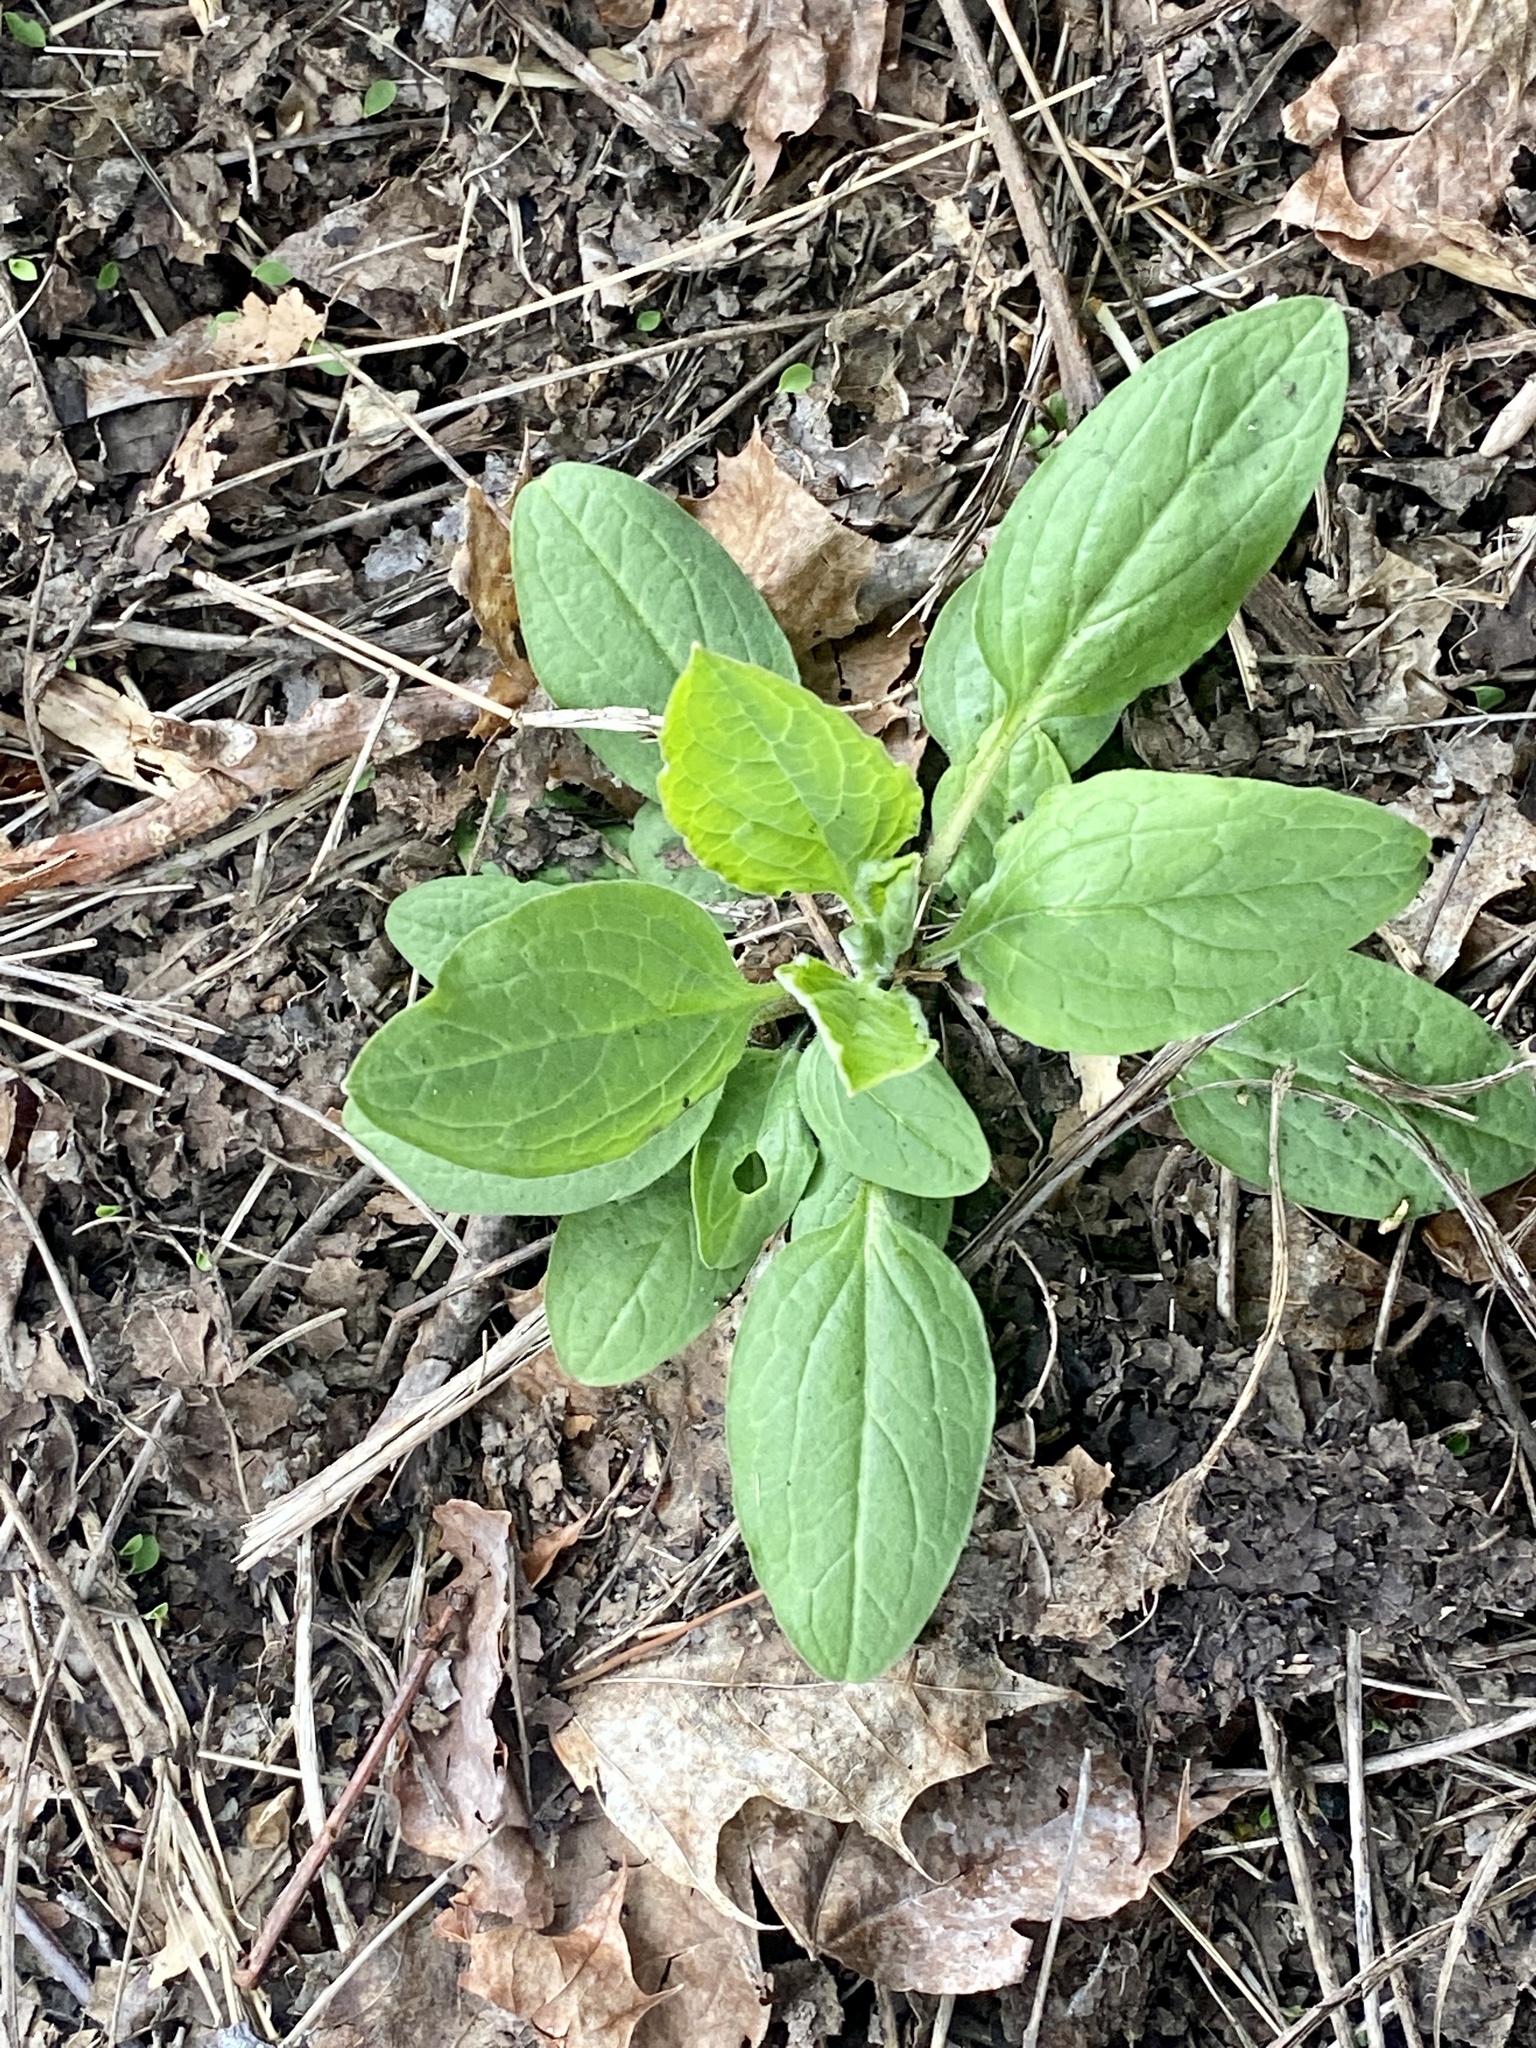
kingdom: Plantae
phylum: Tracheophyta
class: Magnoliopsida
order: Boraginales
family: Boraginaceae
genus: Hackelia
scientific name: Hackelia virginiana
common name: Beggar's-lice
